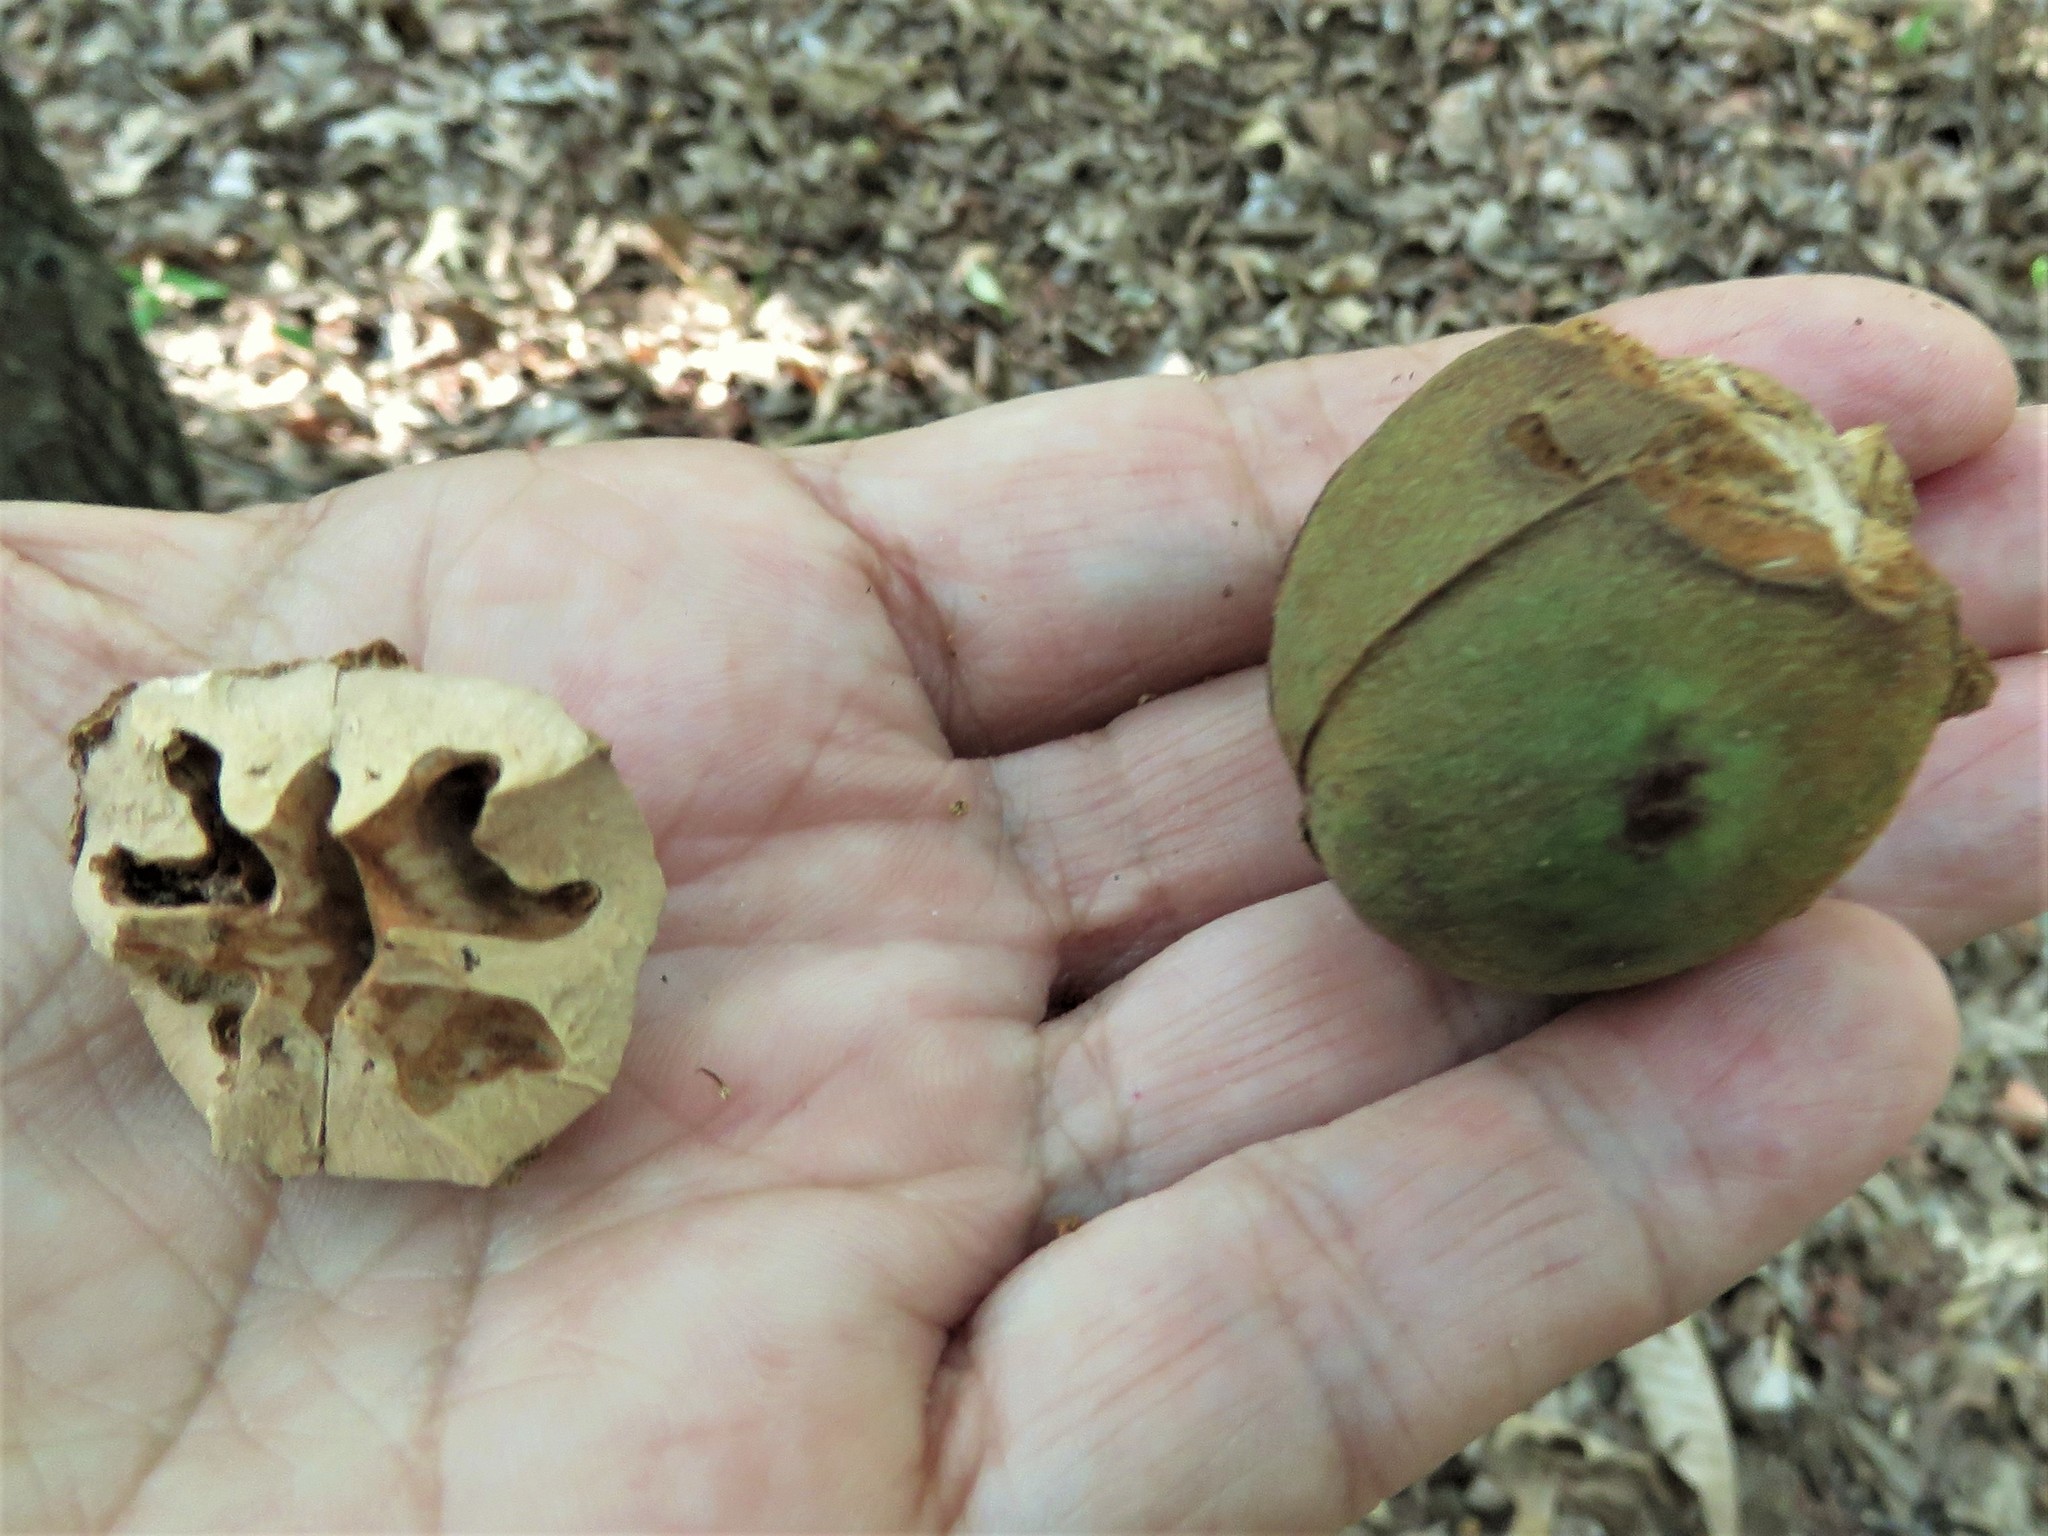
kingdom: Plantae
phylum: Tracheophyta
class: Magnoliopsida
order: Fagales
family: Juglandaceae
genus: Carya
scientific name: Carya texana
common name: Black hickory
